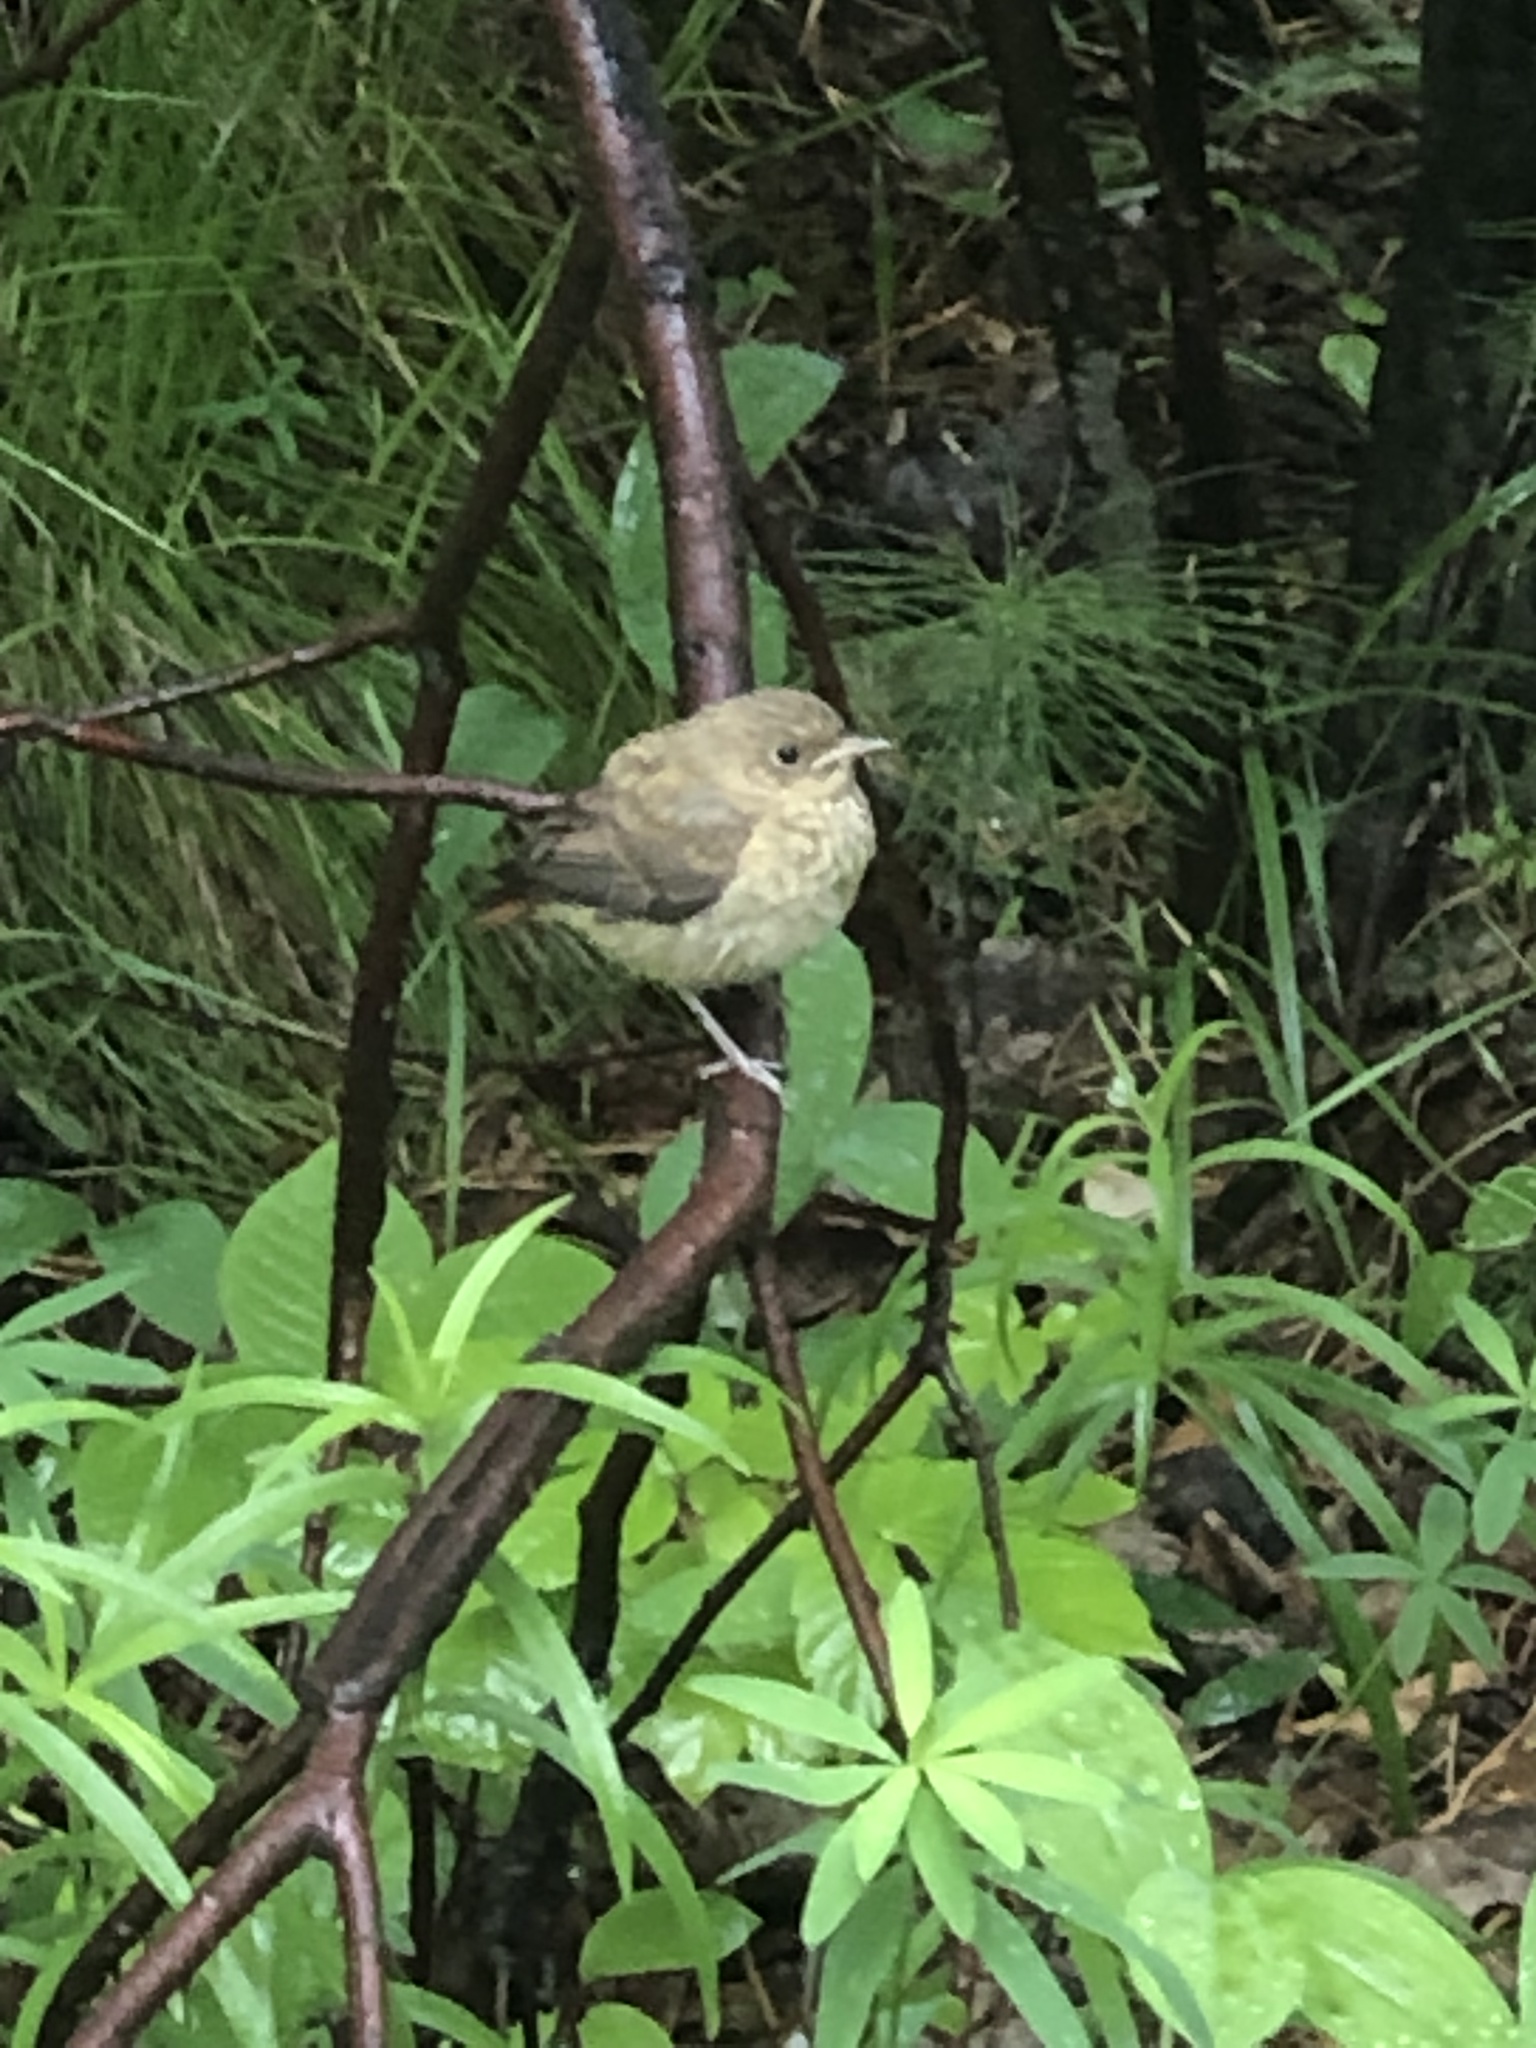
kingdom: Animalia
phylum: Chordata
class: Aves
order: Passeriformes
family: Muscicapidae
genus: Phoenicurus
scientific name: Phoenicurus phoenicurus
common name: Common redstart
